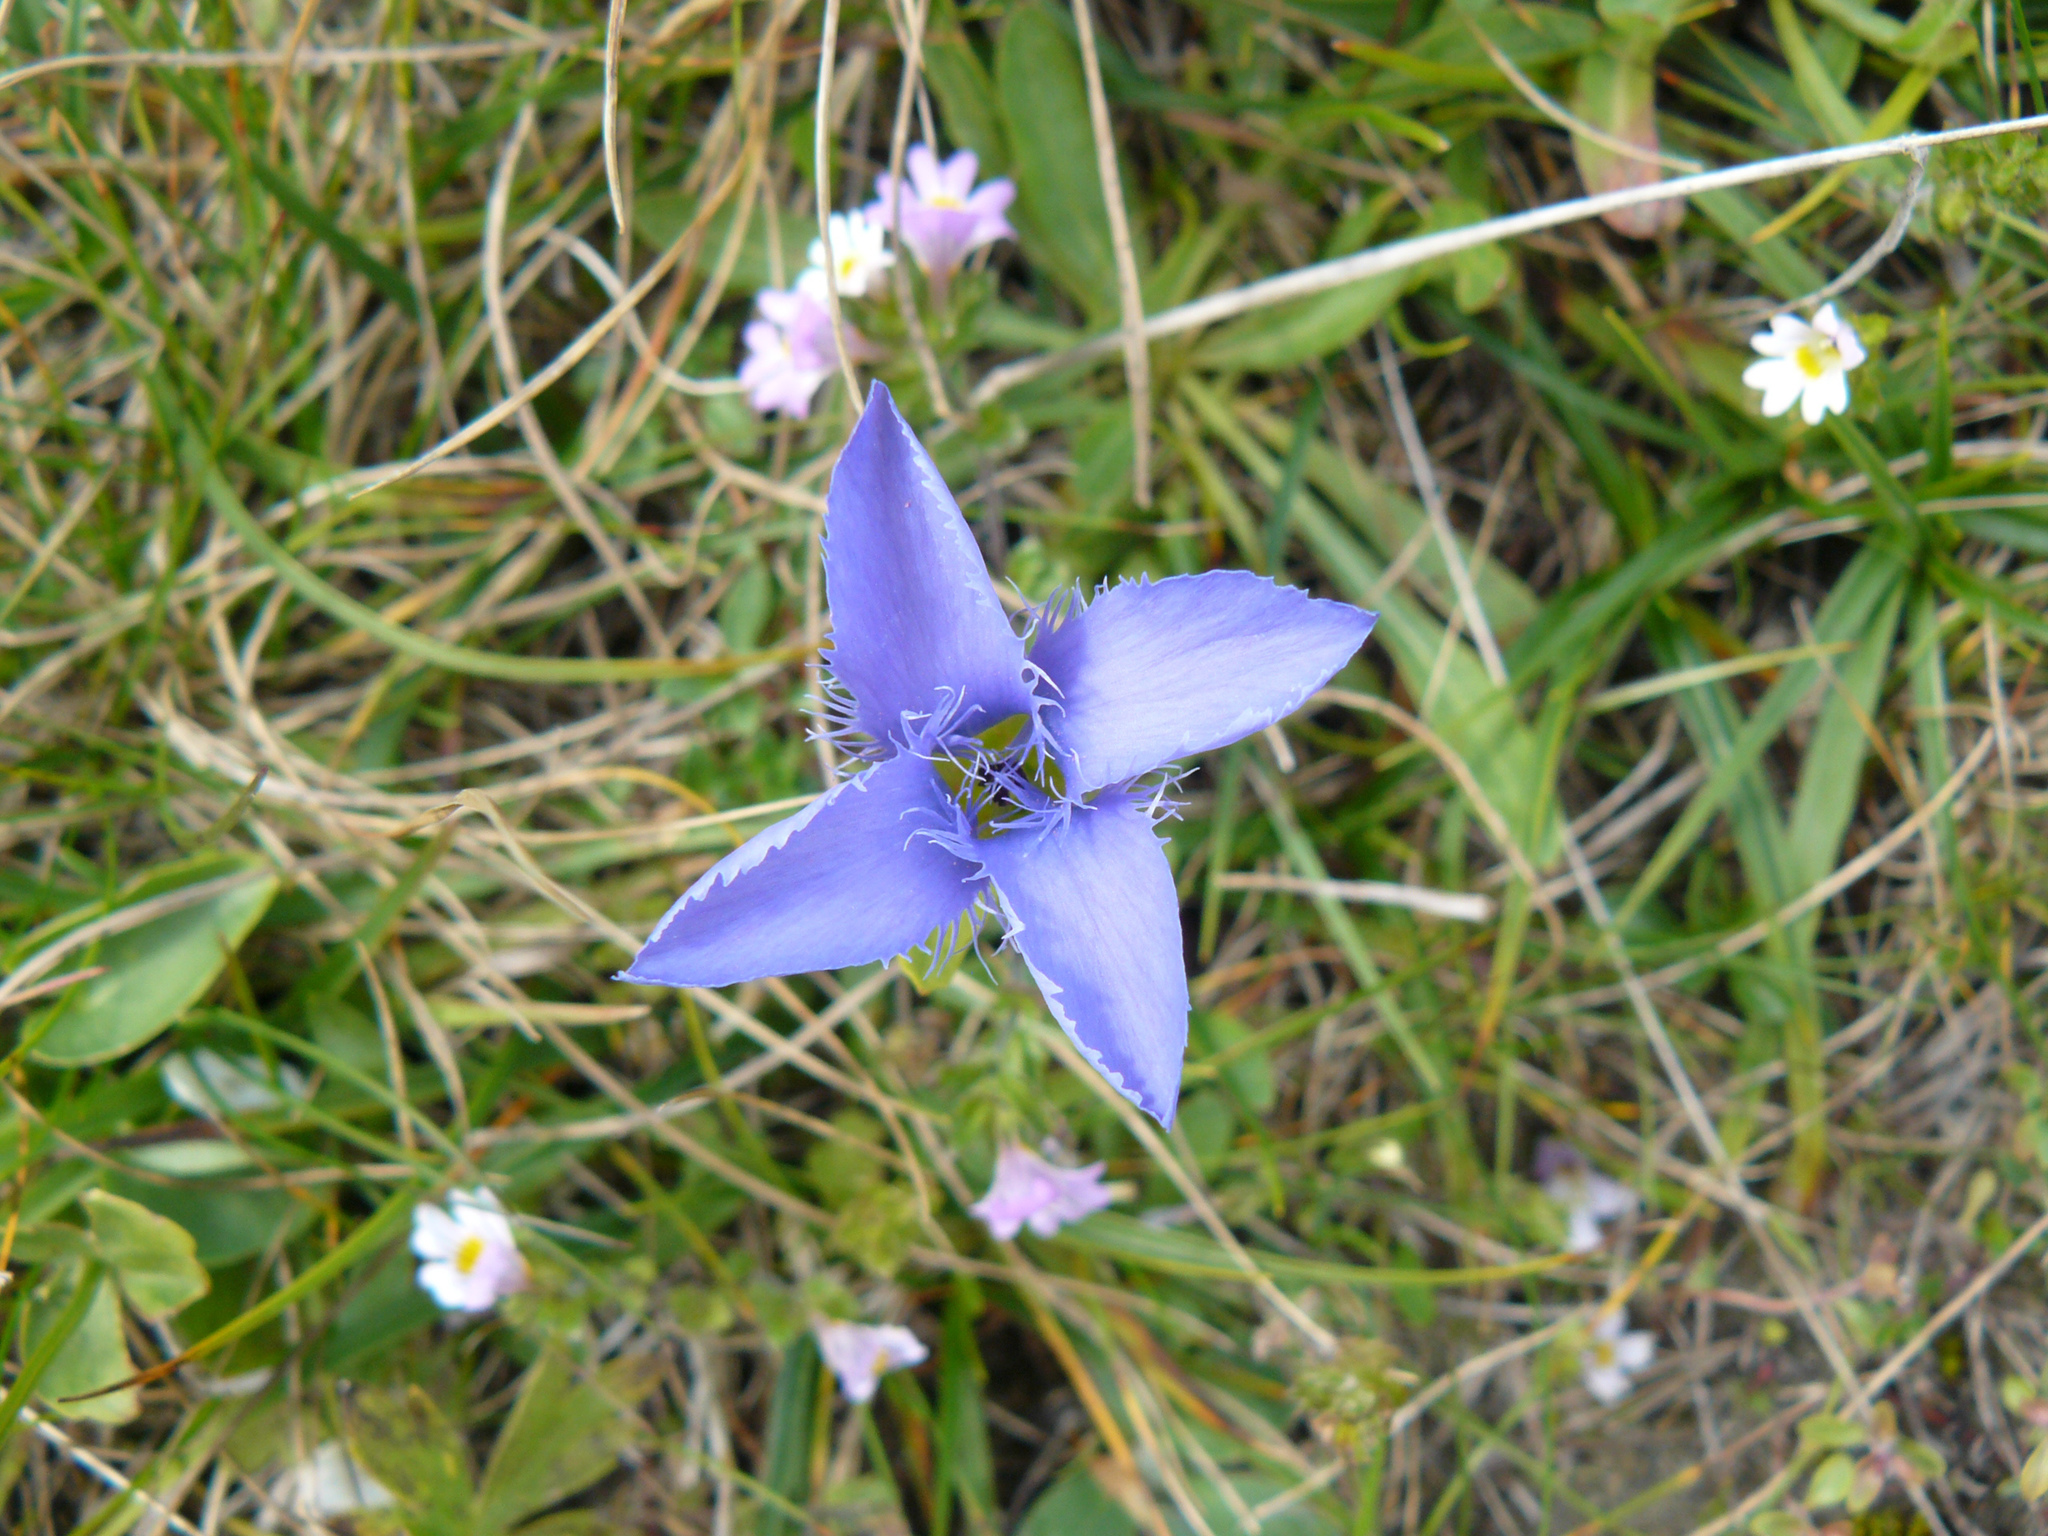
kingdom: Plantae
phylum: Tracheophyta
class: Magnoliopsida
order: Gentianales
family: Gentianaceae
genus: Gentianopsis
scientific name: Gentianopsis ciliata
